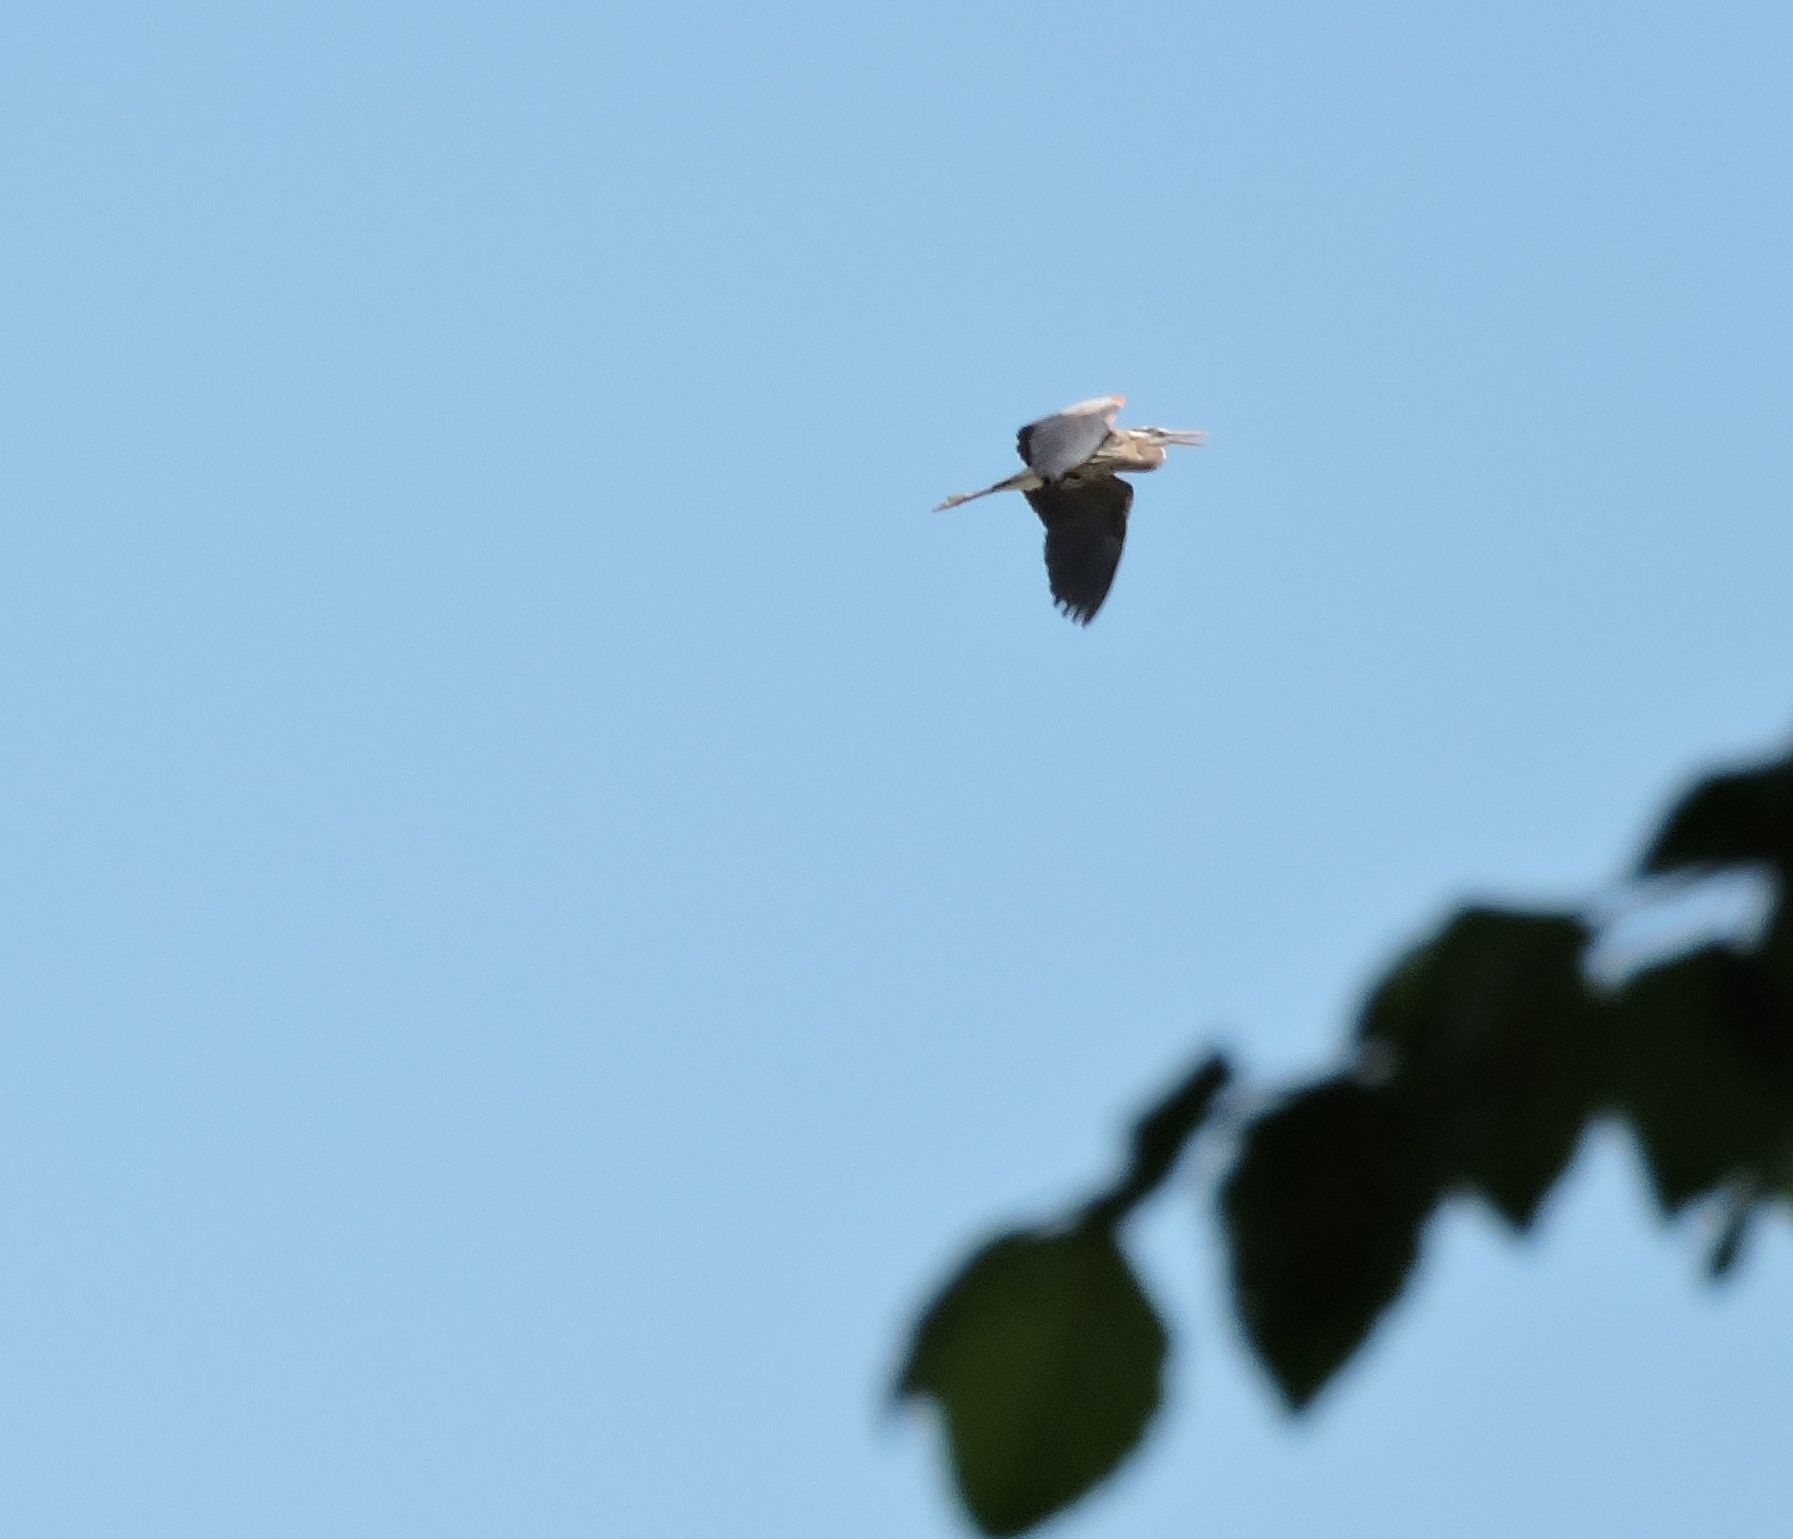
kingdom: Animalia
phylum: Chordata
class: Aves
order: Pelecaniformes
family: Ardeidae
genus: Ardea
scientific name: Ardea herodias
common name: Great blue heron
